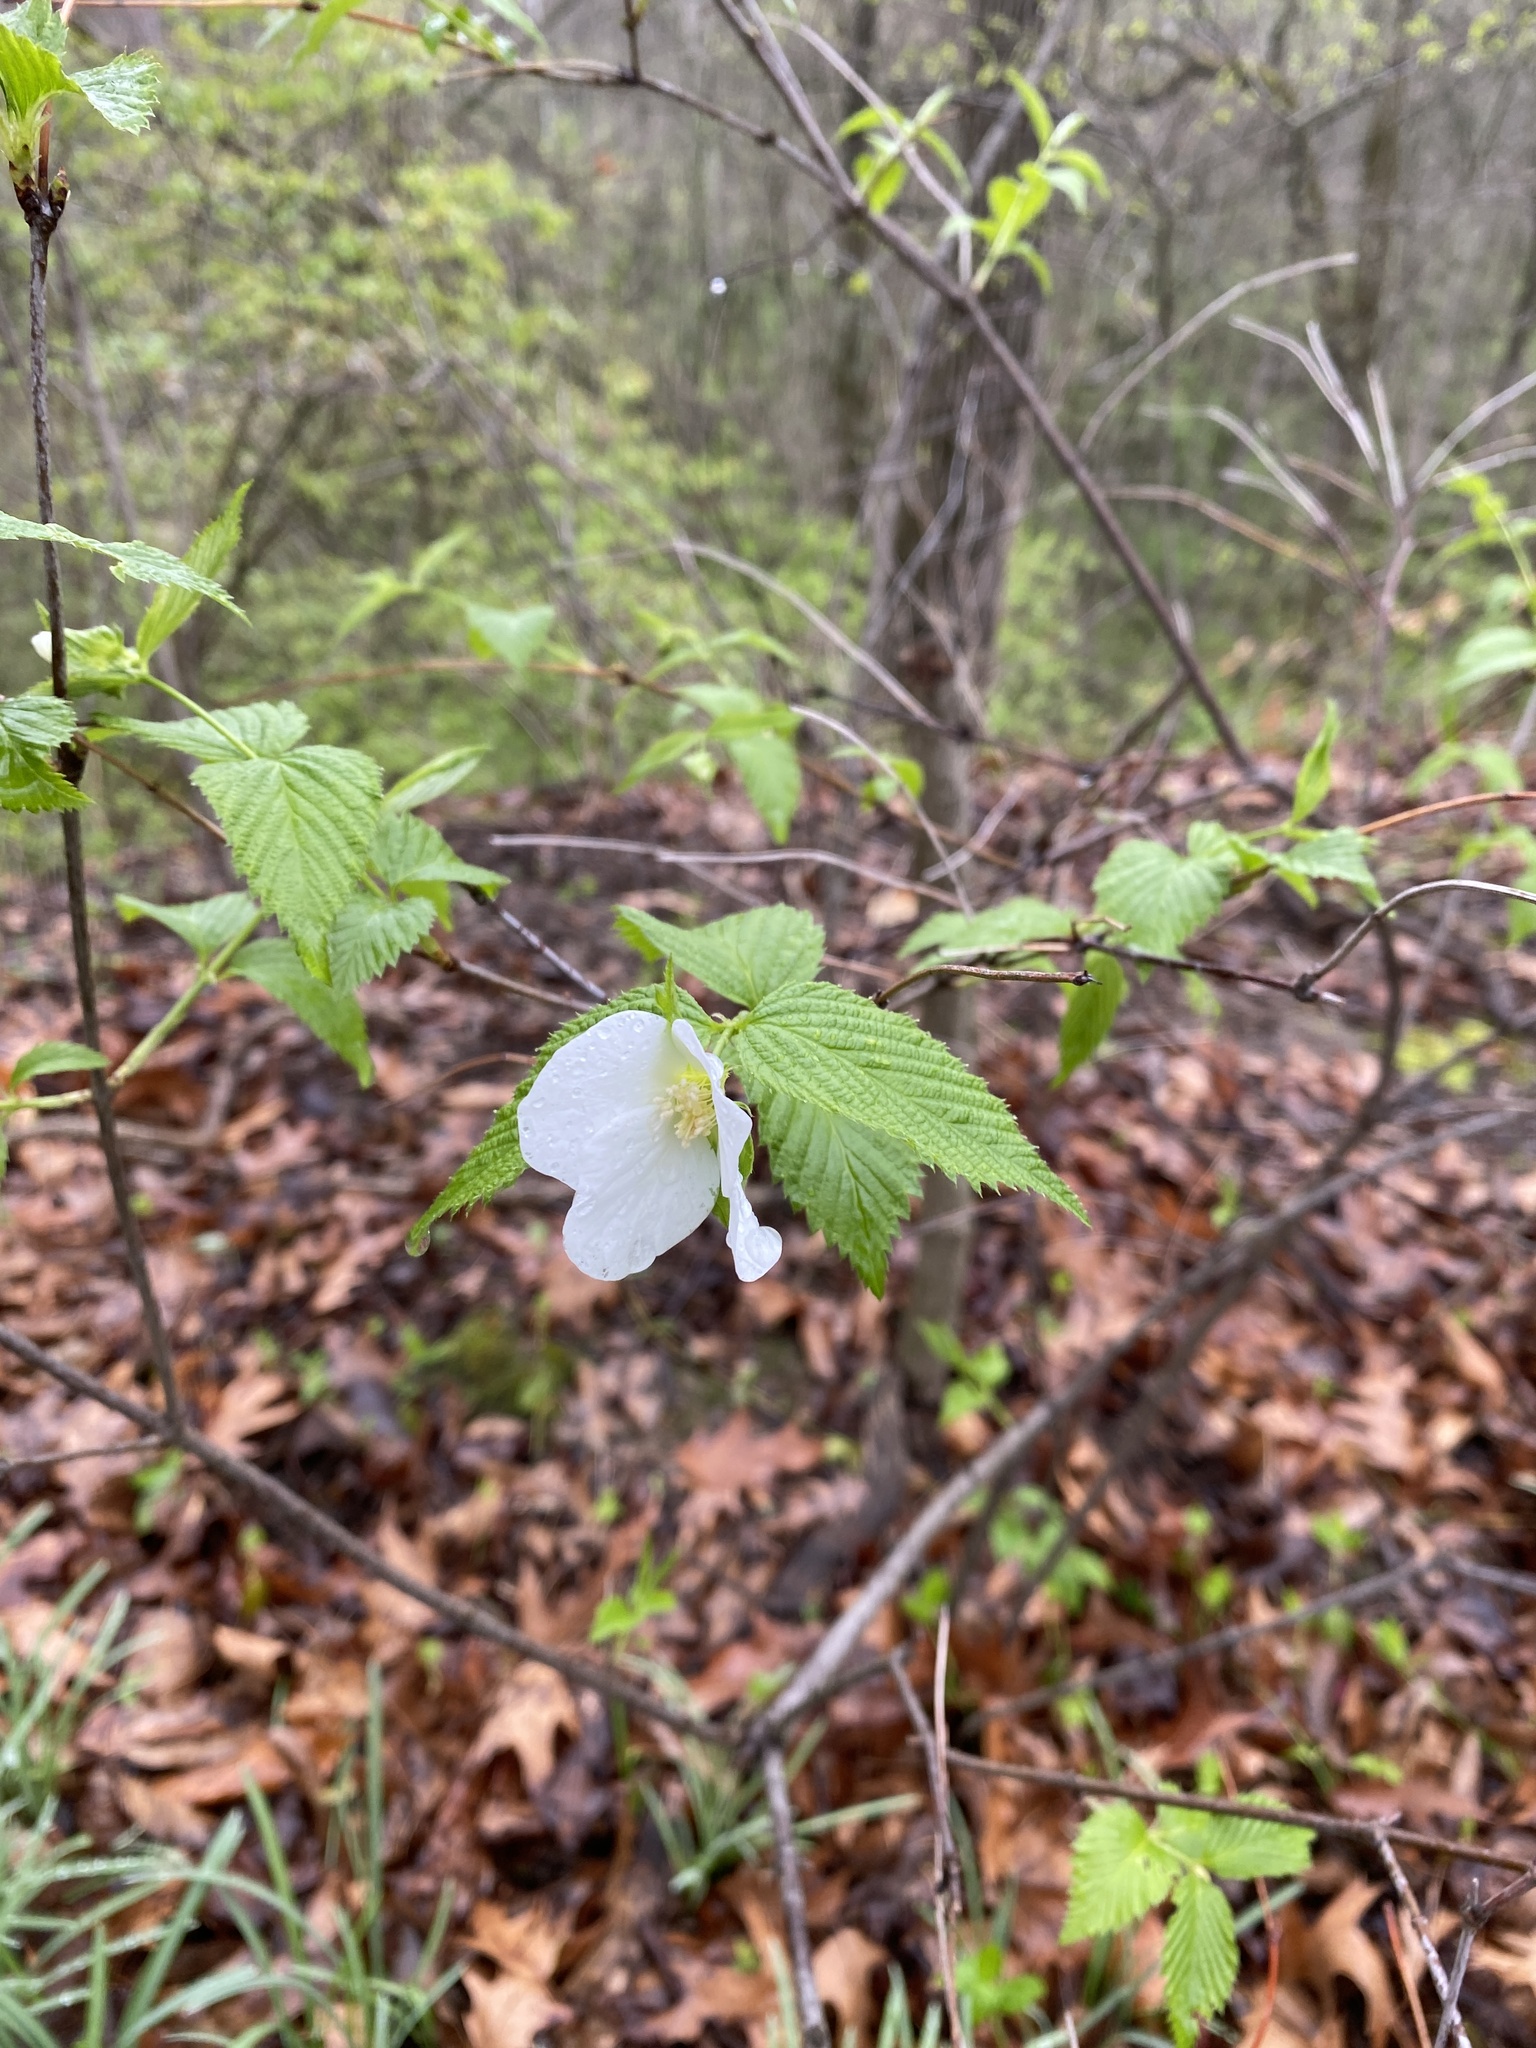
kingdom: Plantae
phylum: Tracheophyta
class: Magnoliopsida
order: Rosales
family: Rosaceae
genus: Rhodotypos
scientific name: Rhodotypos scandens
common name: Jetbead
